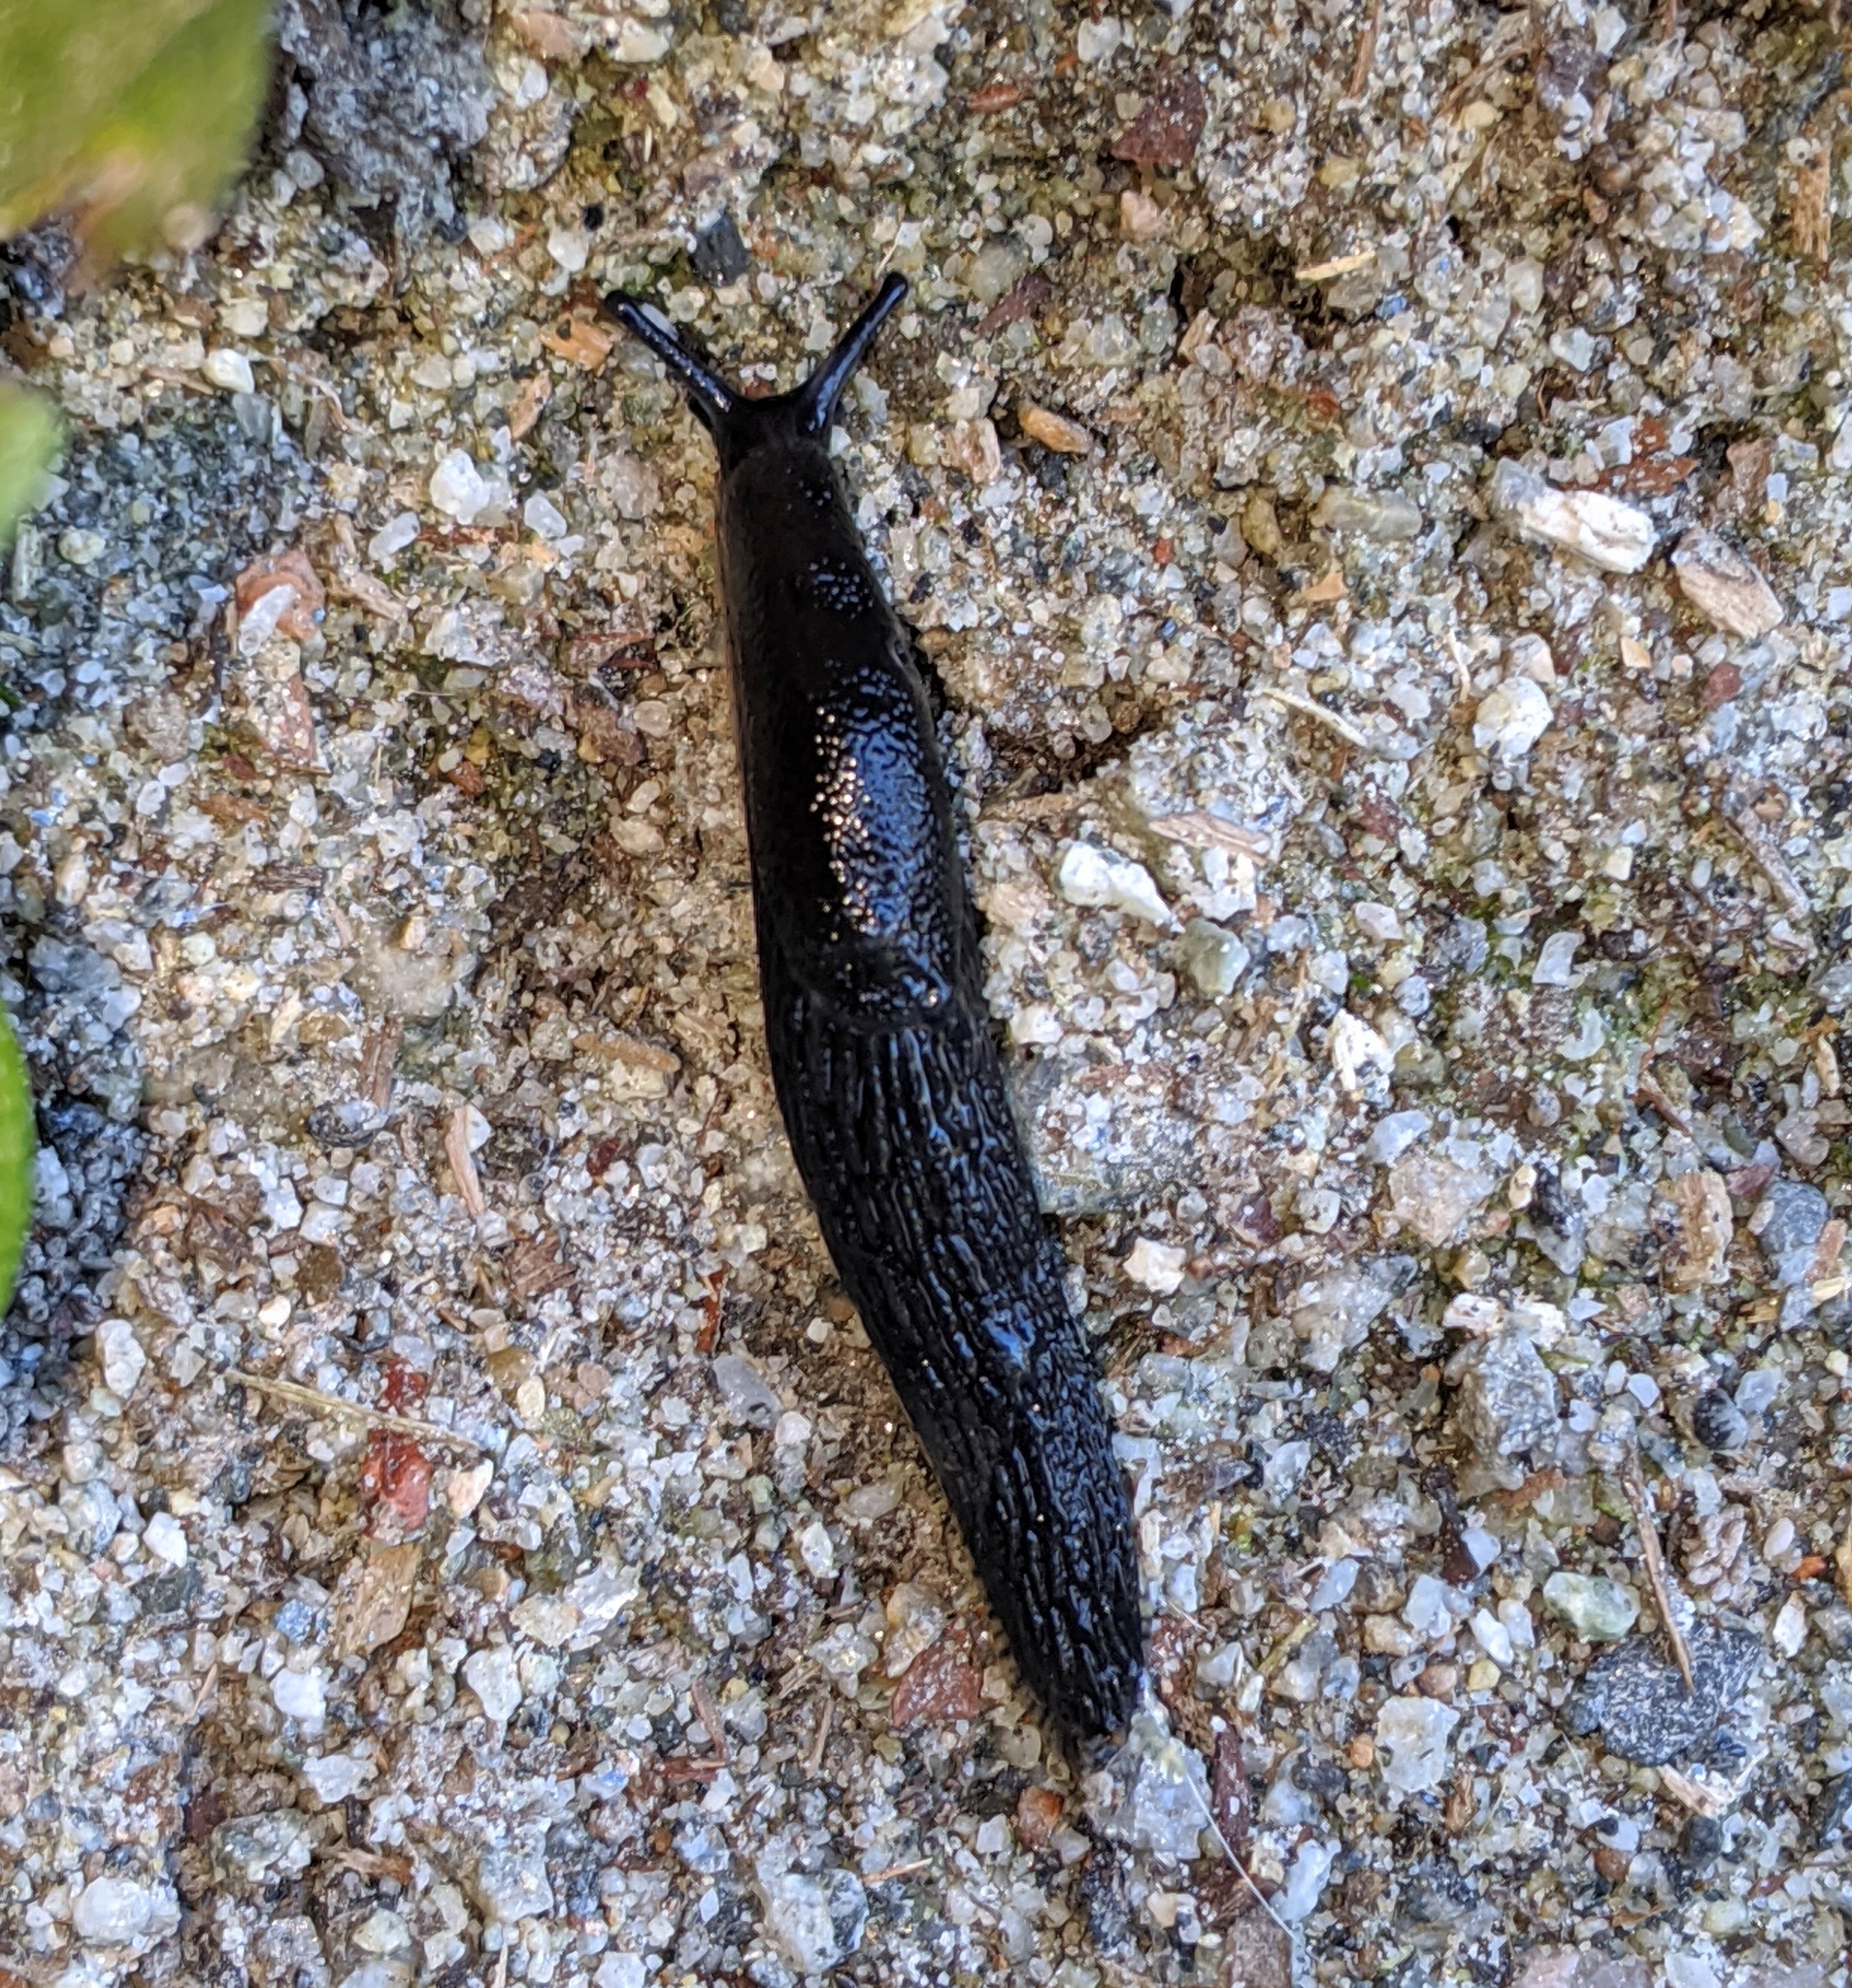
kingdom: Animalia
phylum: Mollusca
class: Gastropoda
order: Stylommatophora
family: Arionidae
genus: Arion
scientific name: Arion rufus
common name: Chocolate arion
